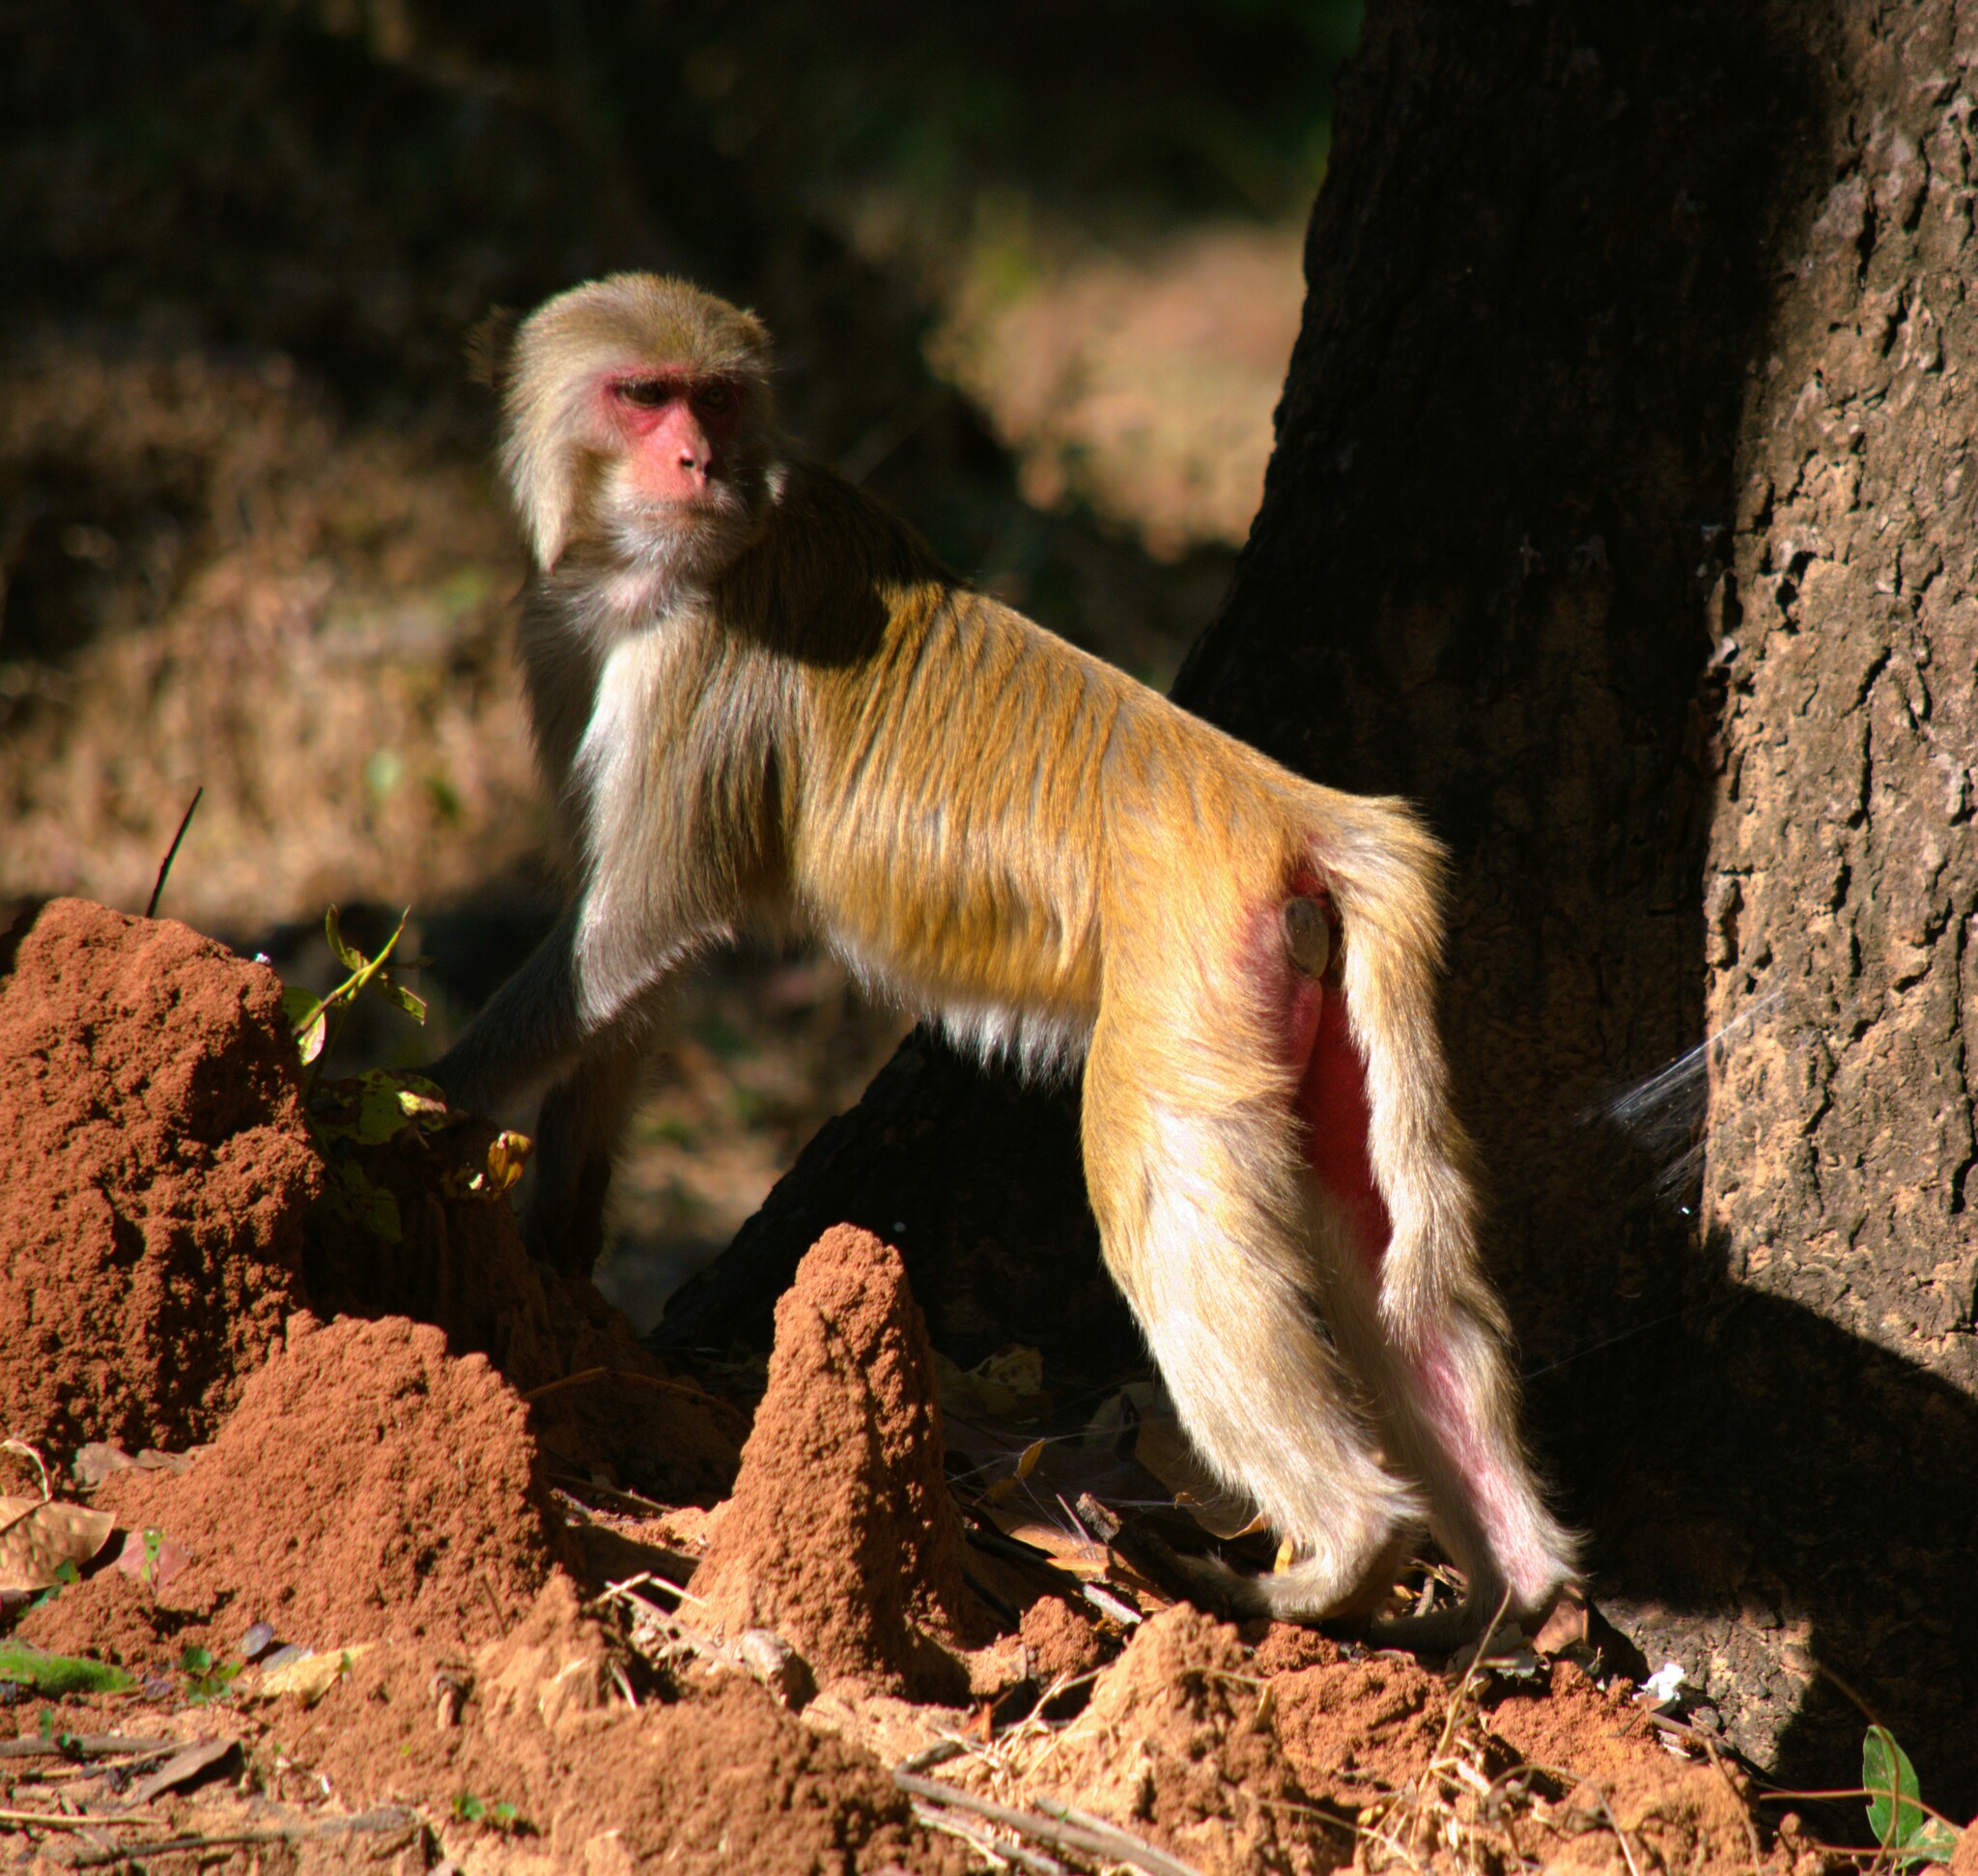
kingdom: Animalia
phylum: Chordata
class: Mammalia
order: Primates
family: Cercopithecidae
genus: Macaca
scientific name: Macaca mulatta
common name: Rhesus monkey
